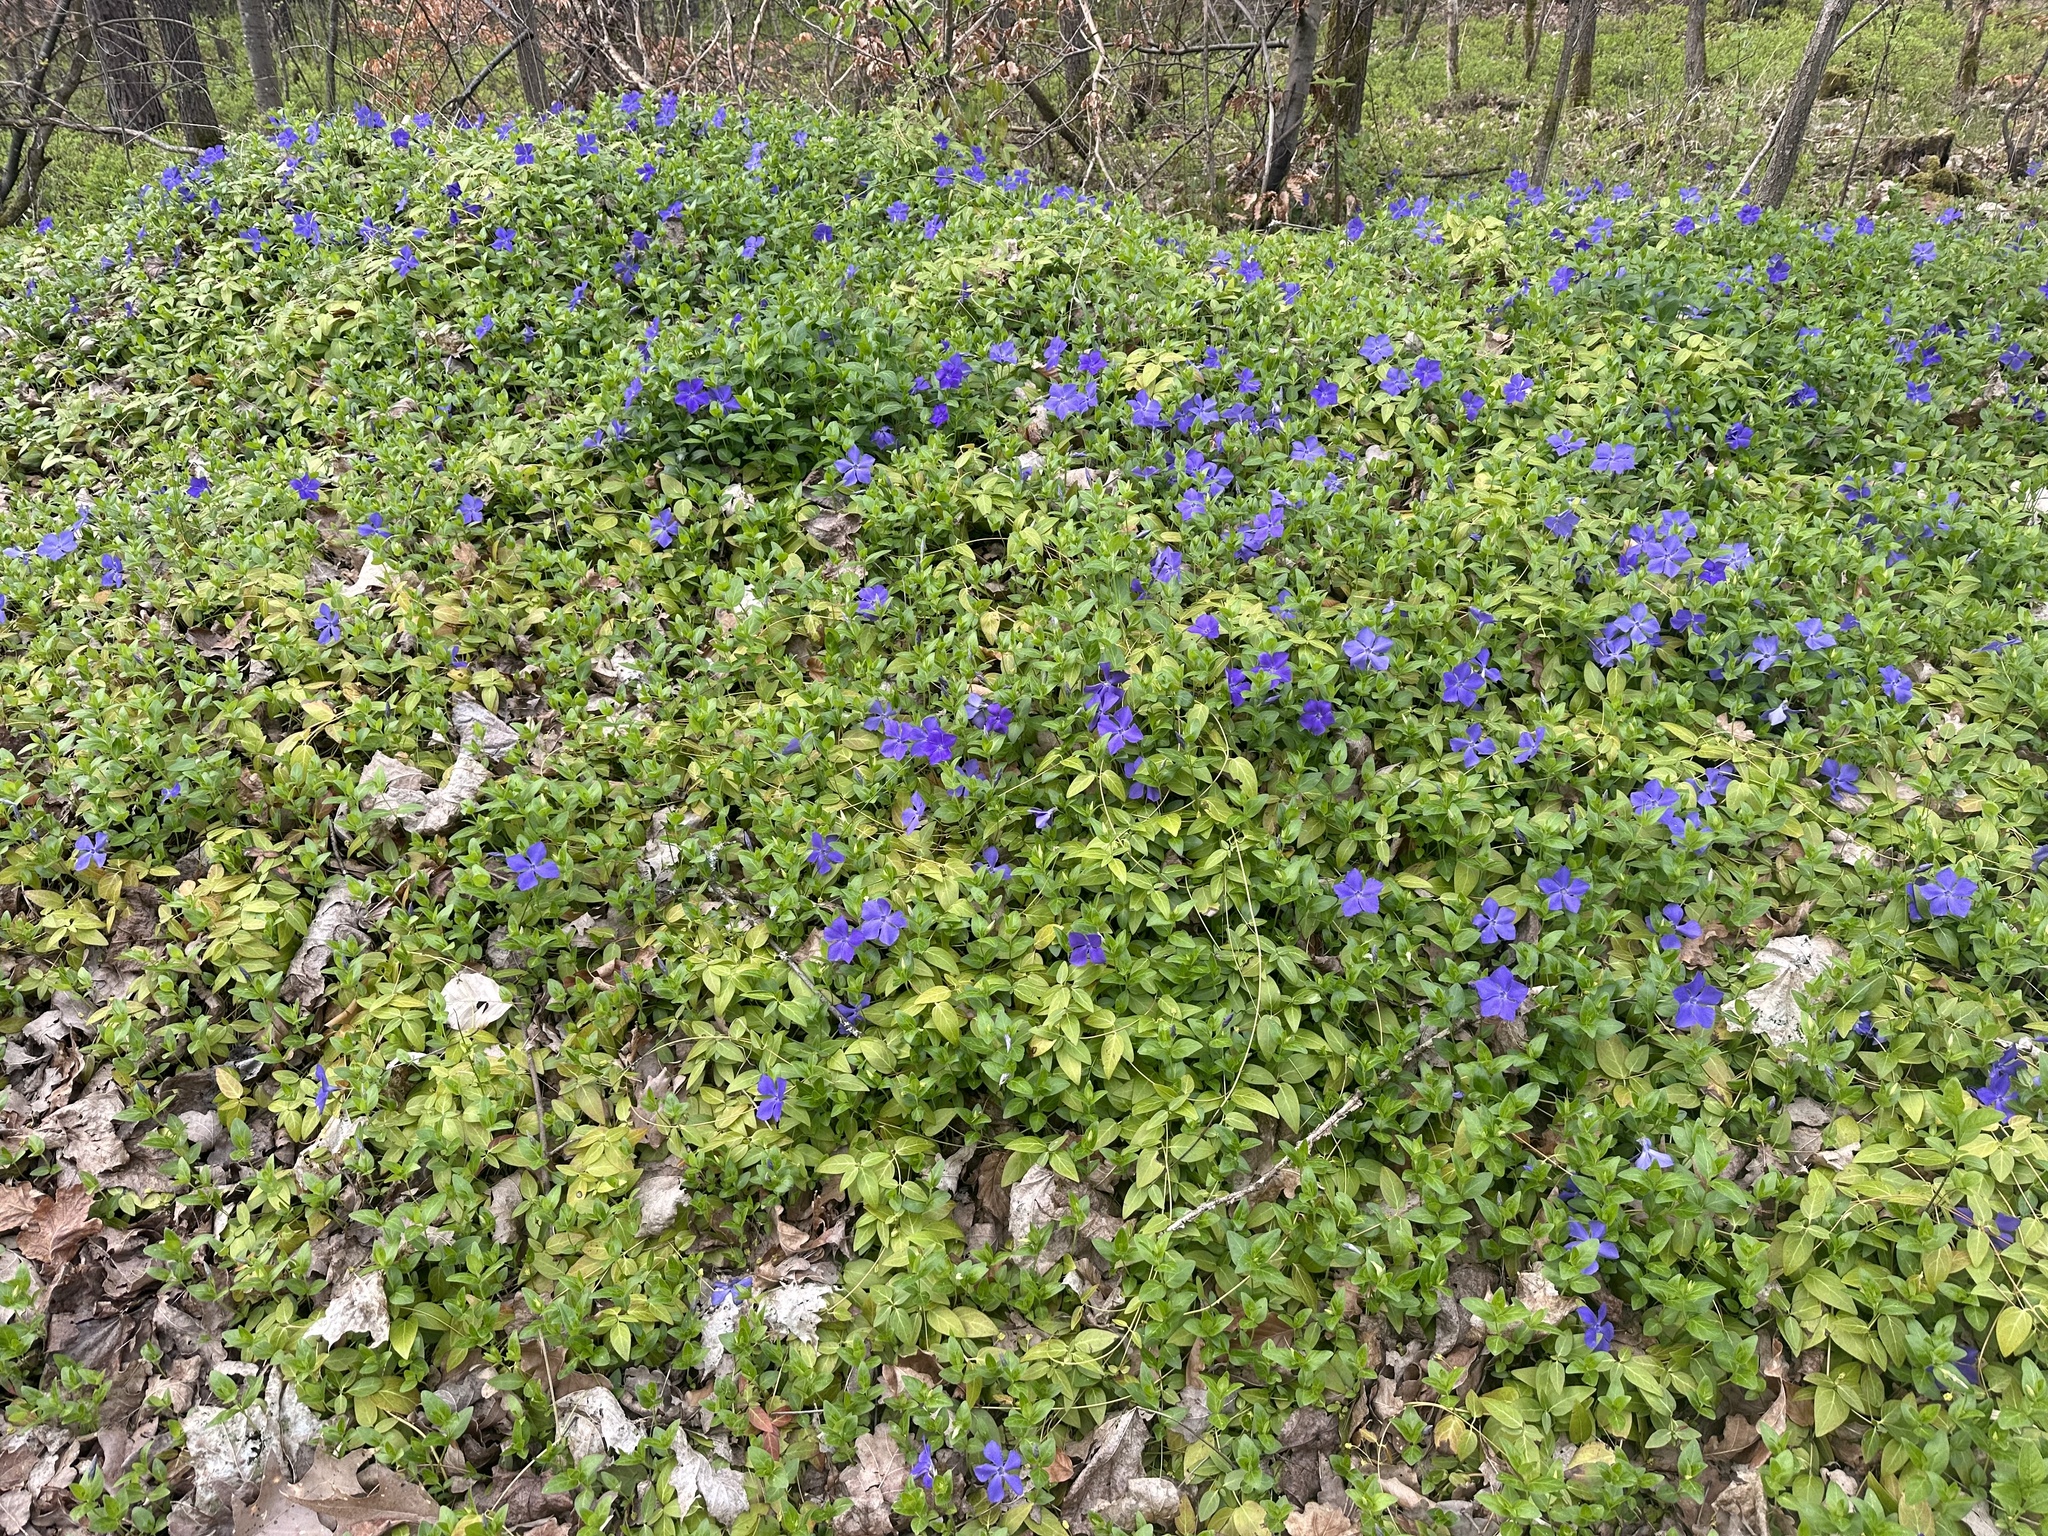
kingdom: Plantae
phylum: Tracheophyta
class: Magnoliopsida
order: Gentianales
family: Apocynaceae
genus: Vinca
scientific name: Vinca major
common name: Greater periwinkle
